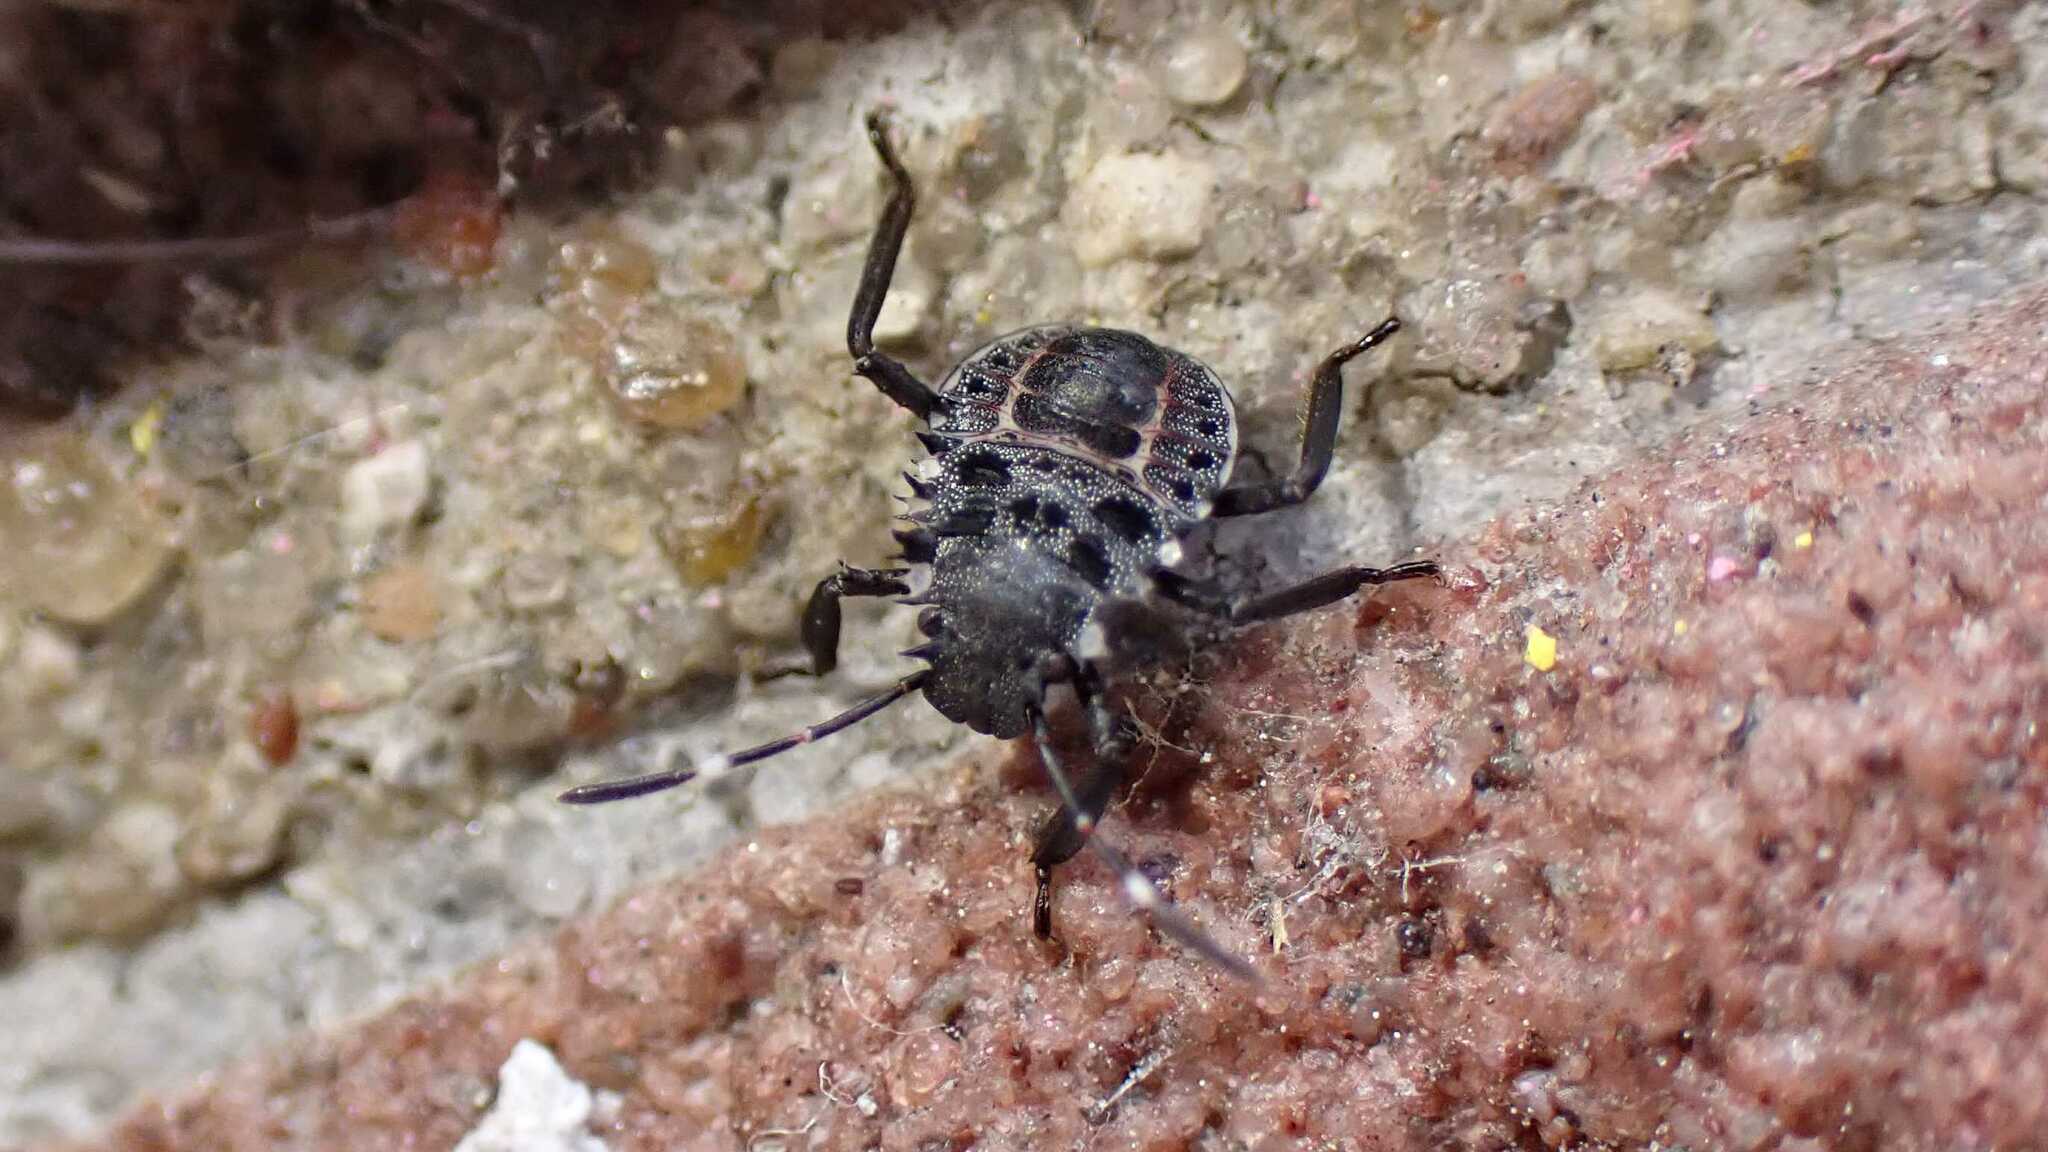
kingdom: Animalia
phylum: Arthropoda
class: Insecta
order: Hemiptera
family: Pentatomidae
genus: Halyomorpha
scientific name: Halyomorpha halys
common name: Brown marmorated stink bug
